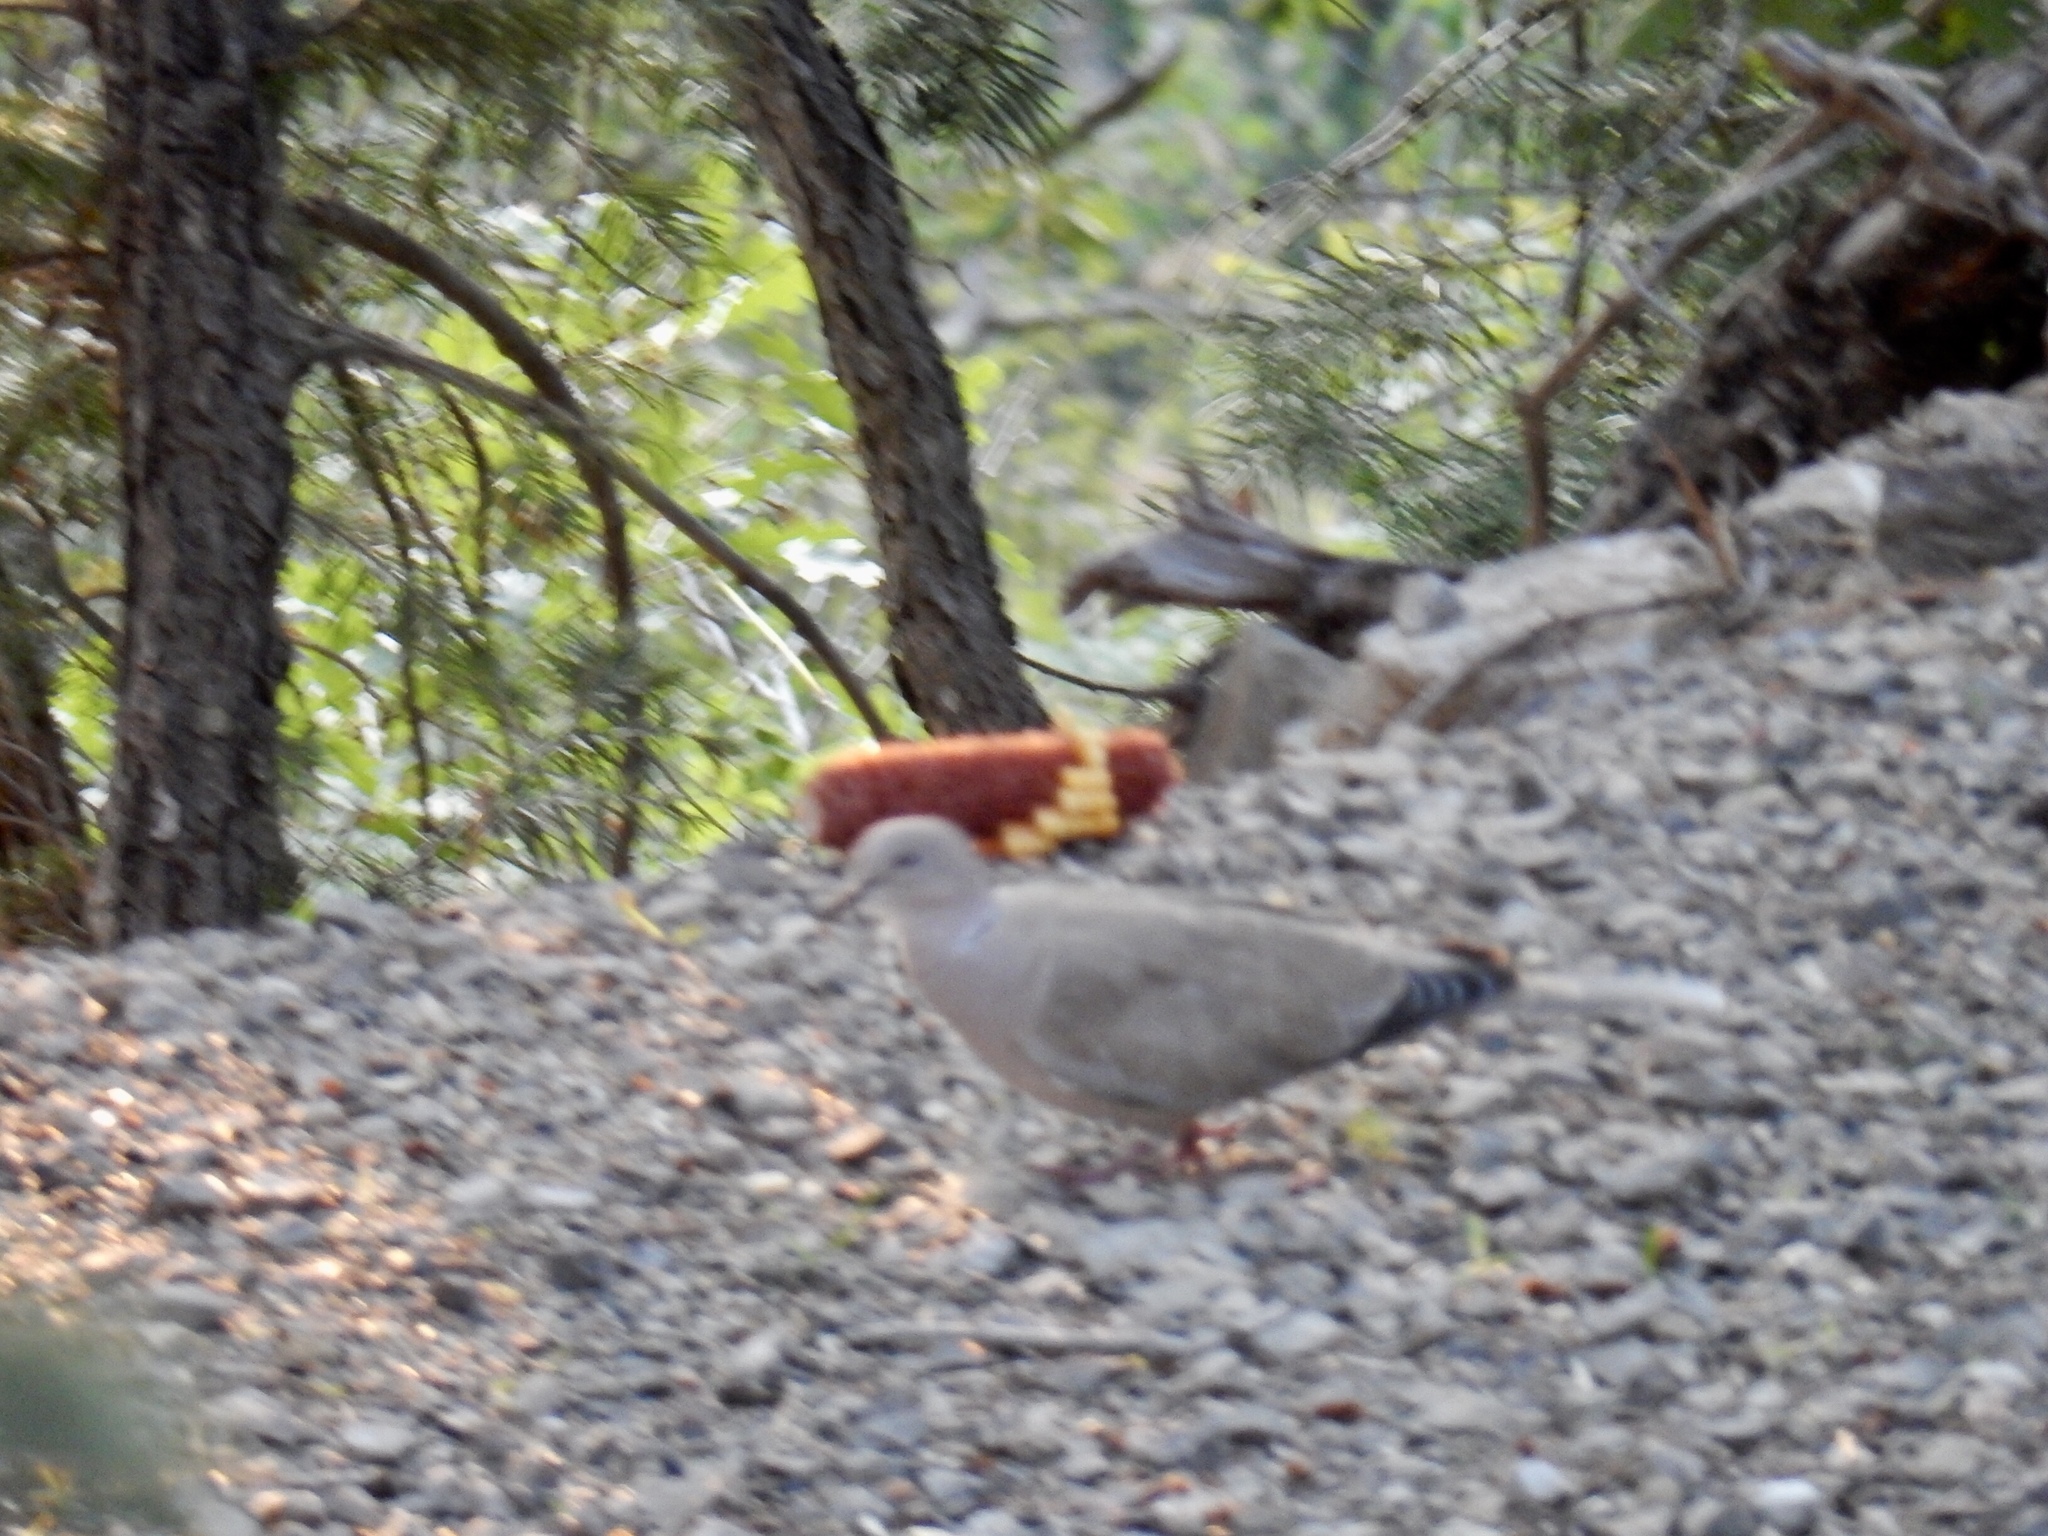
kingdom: Animalia
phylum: Chordata
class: Aves
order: Columbiformes
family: Columbidae
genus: Streptopelia
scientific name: Streptopelia decaocto
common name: Eurasian collared dove
